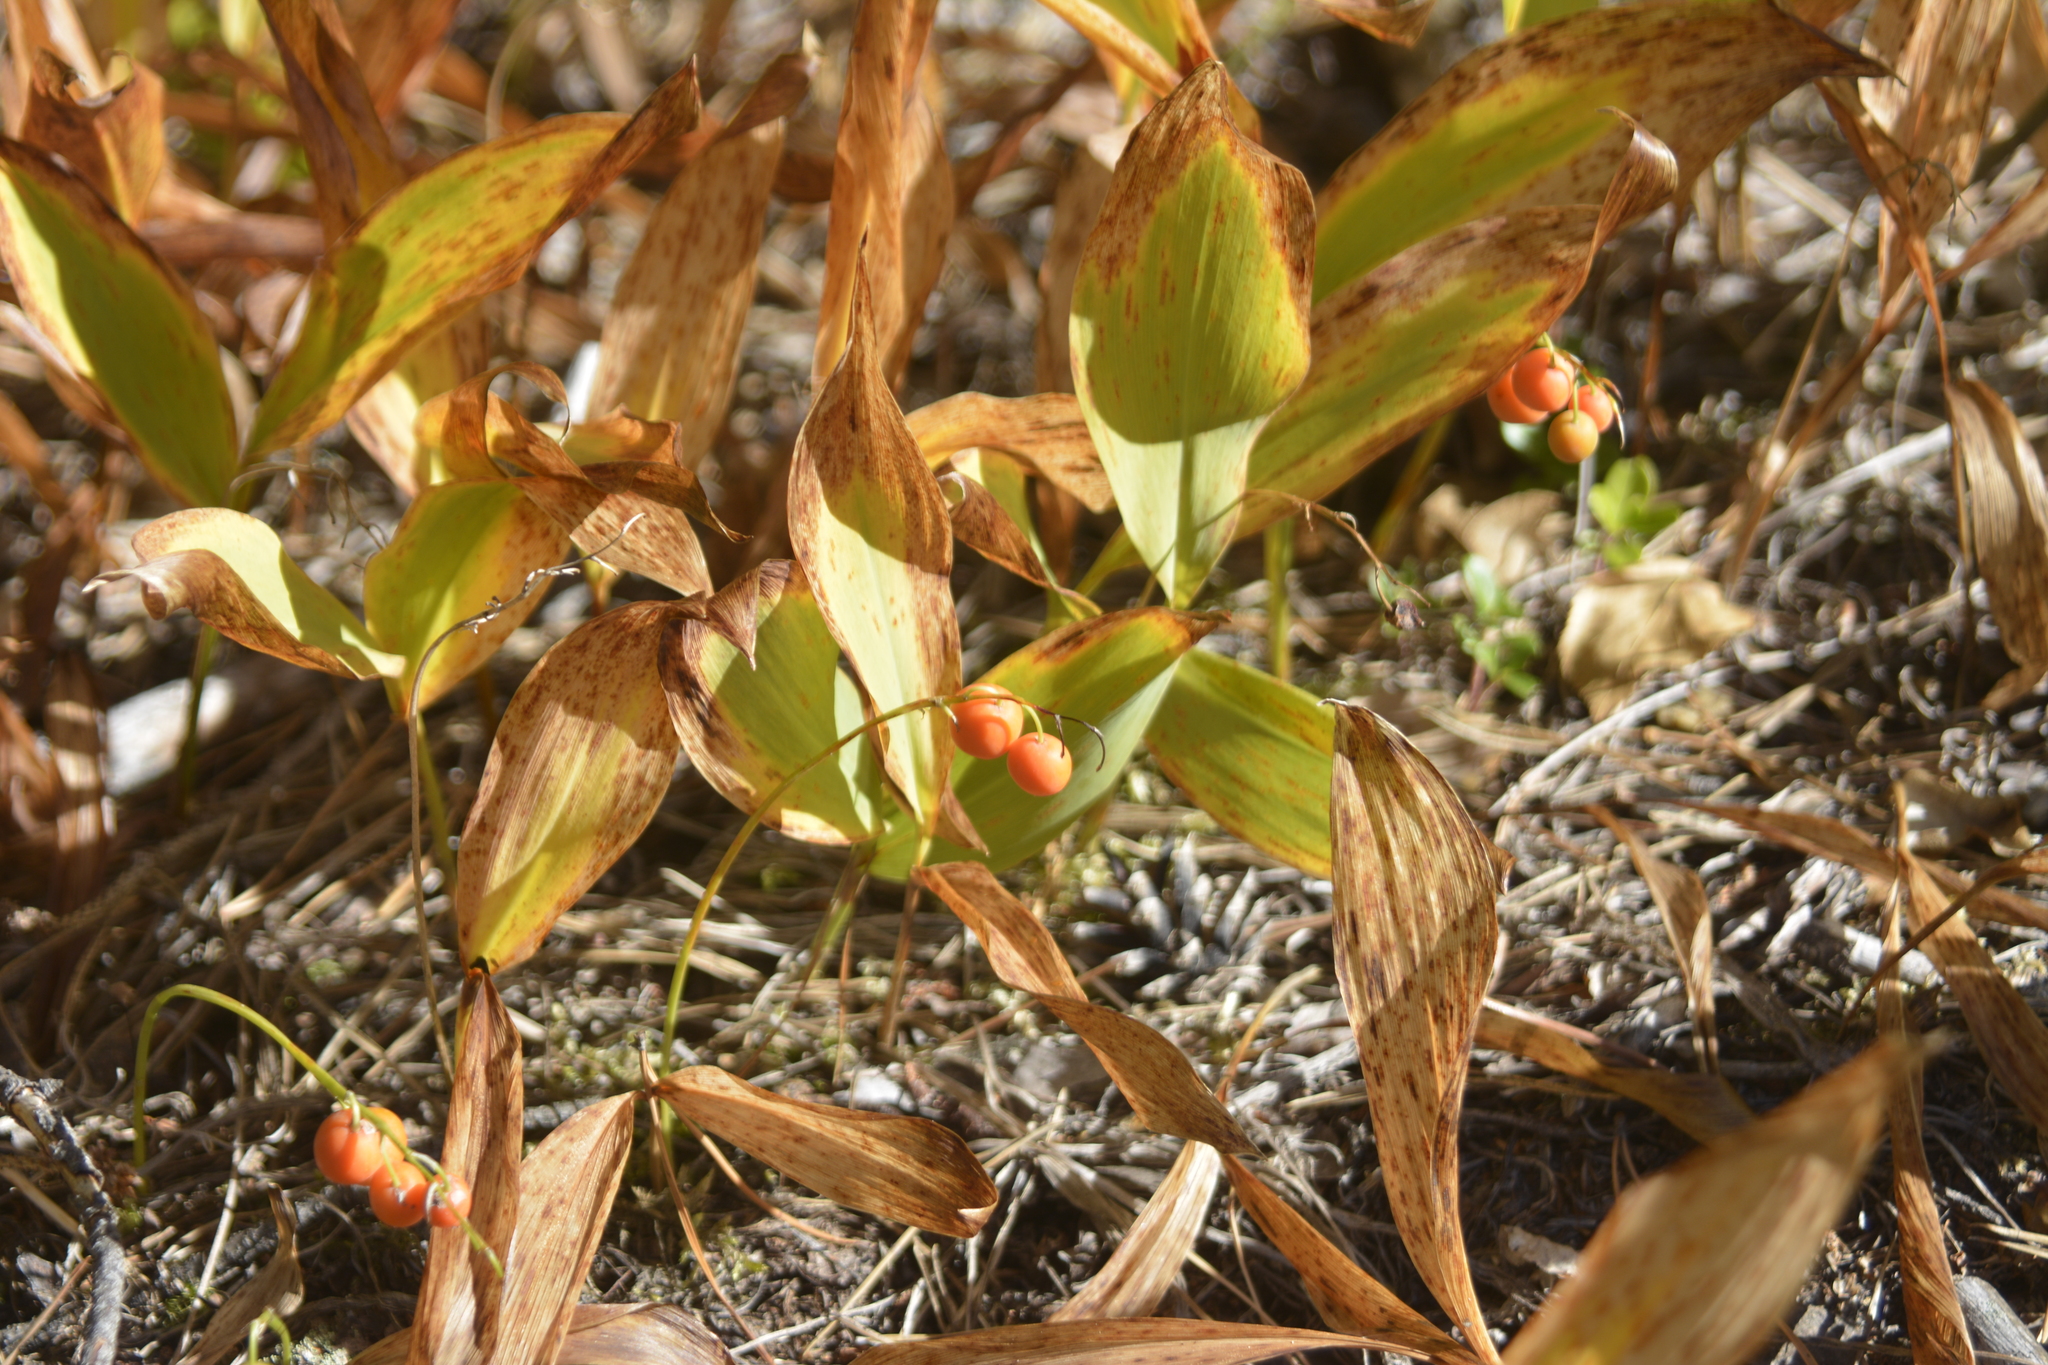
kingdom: Plantae
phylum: Tracheophyta
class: Liliopsida
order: Asparagales
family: Asparagaceae
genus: Convallaria
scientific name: Convallaria majalis
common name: Lily-of-the-valley
